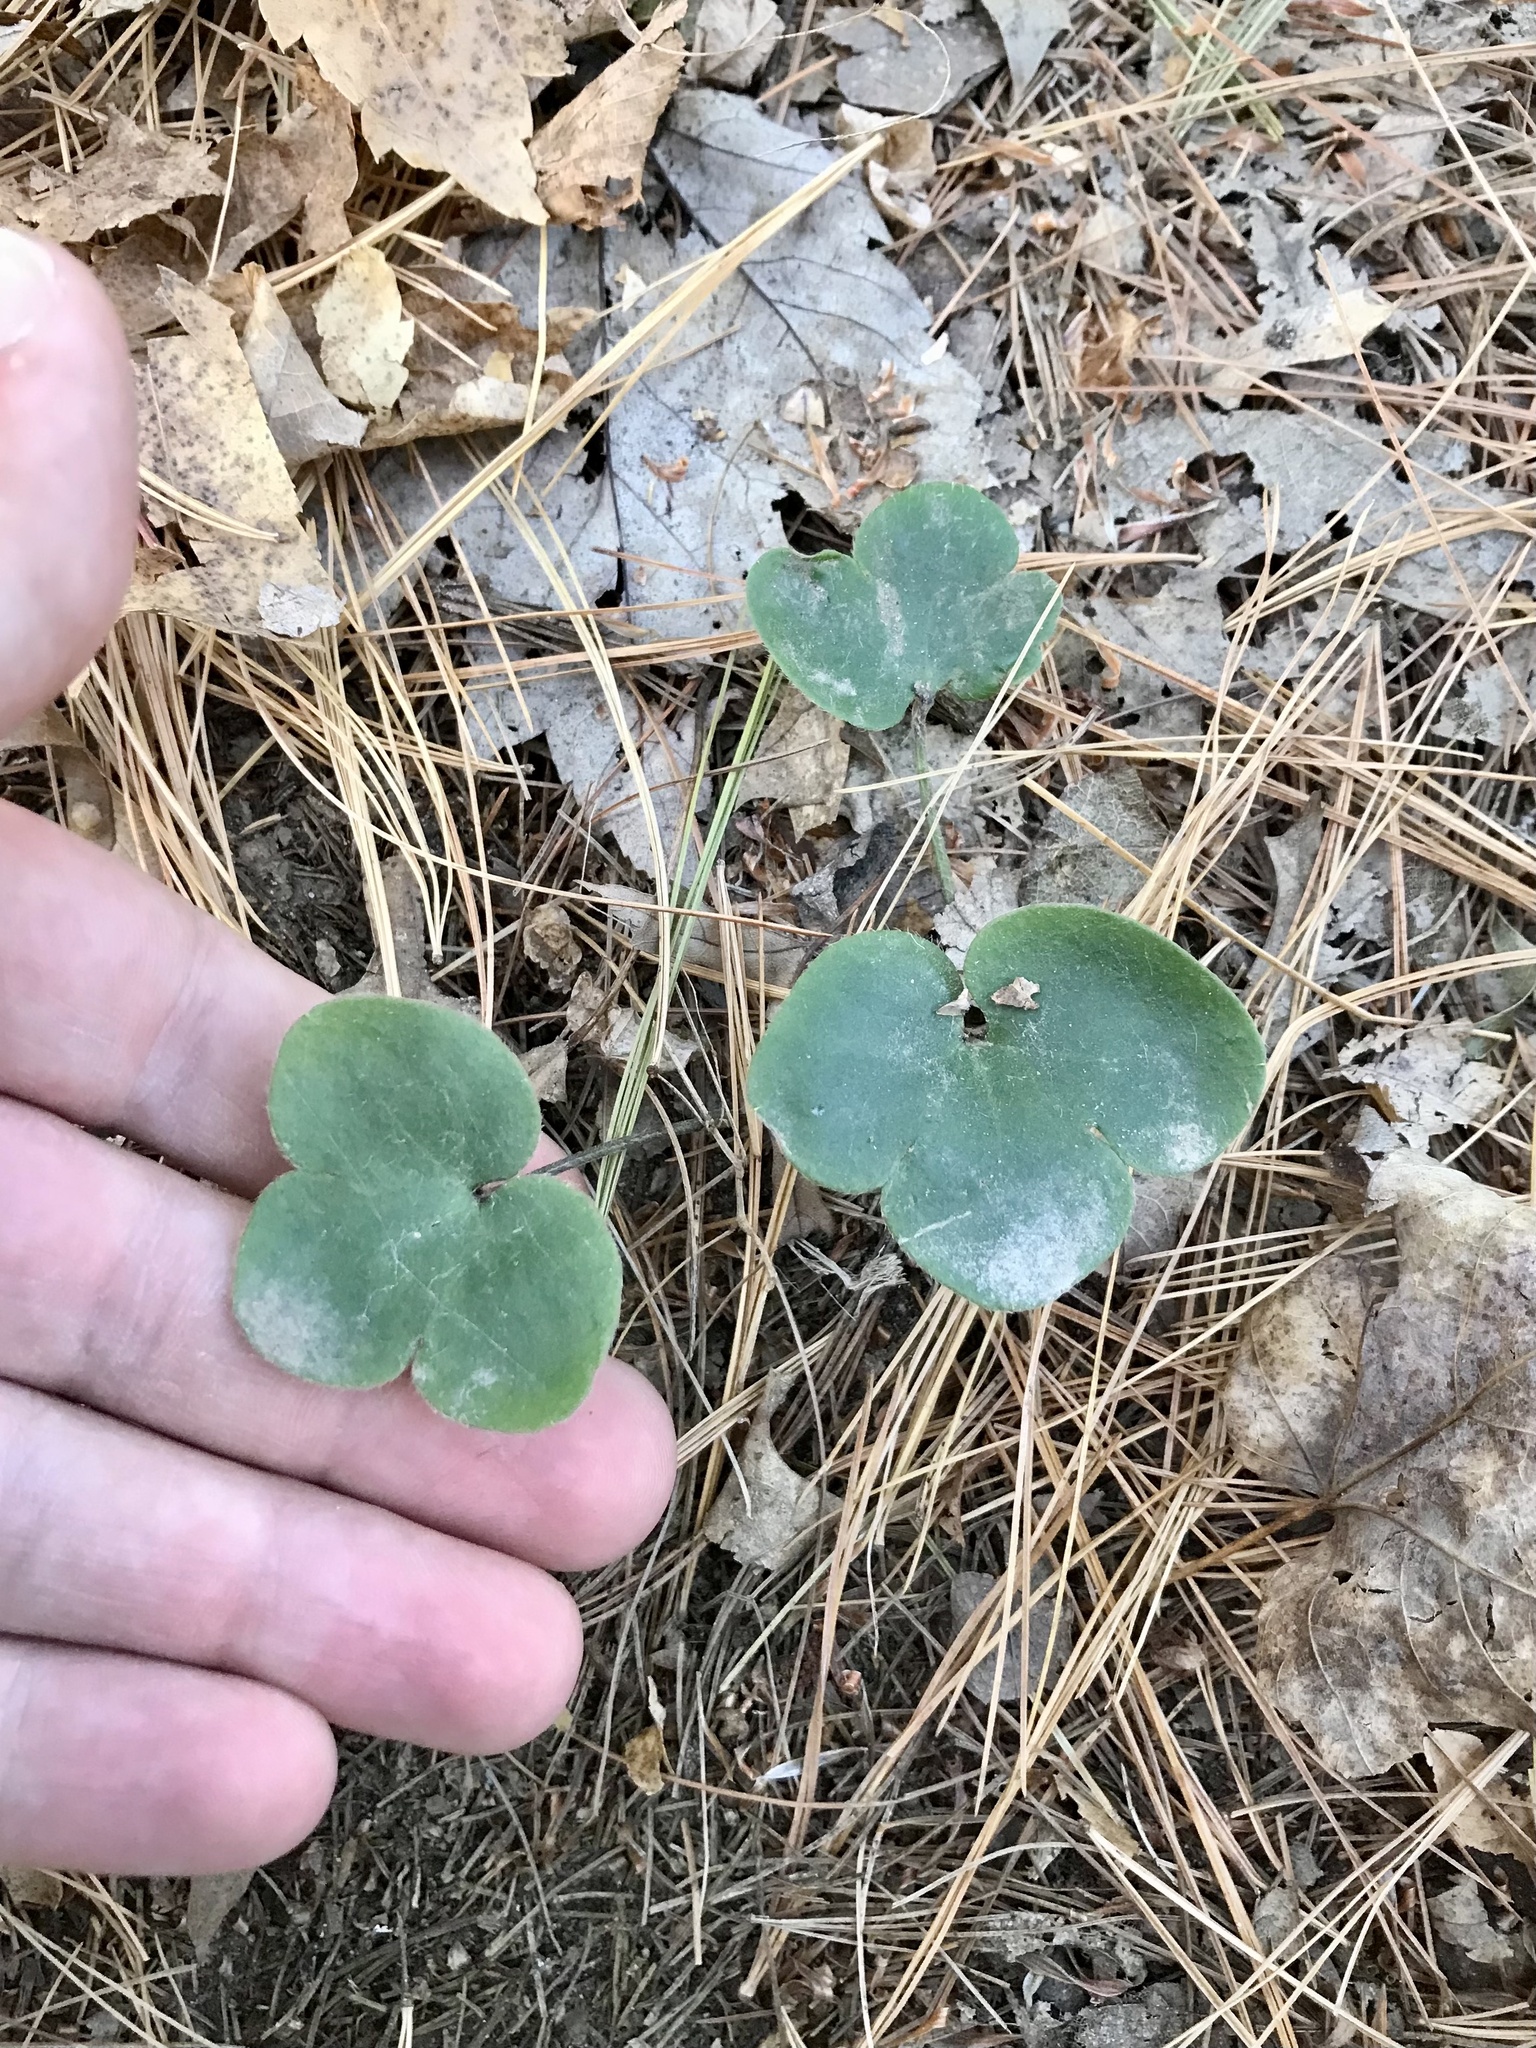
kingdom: Plantae
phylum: Tracheophyta
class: Magnoliopsida
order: Ranunculales
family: Ranunculaceae
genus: Hepatica
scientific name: Hepatica americana
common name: American hepatica
